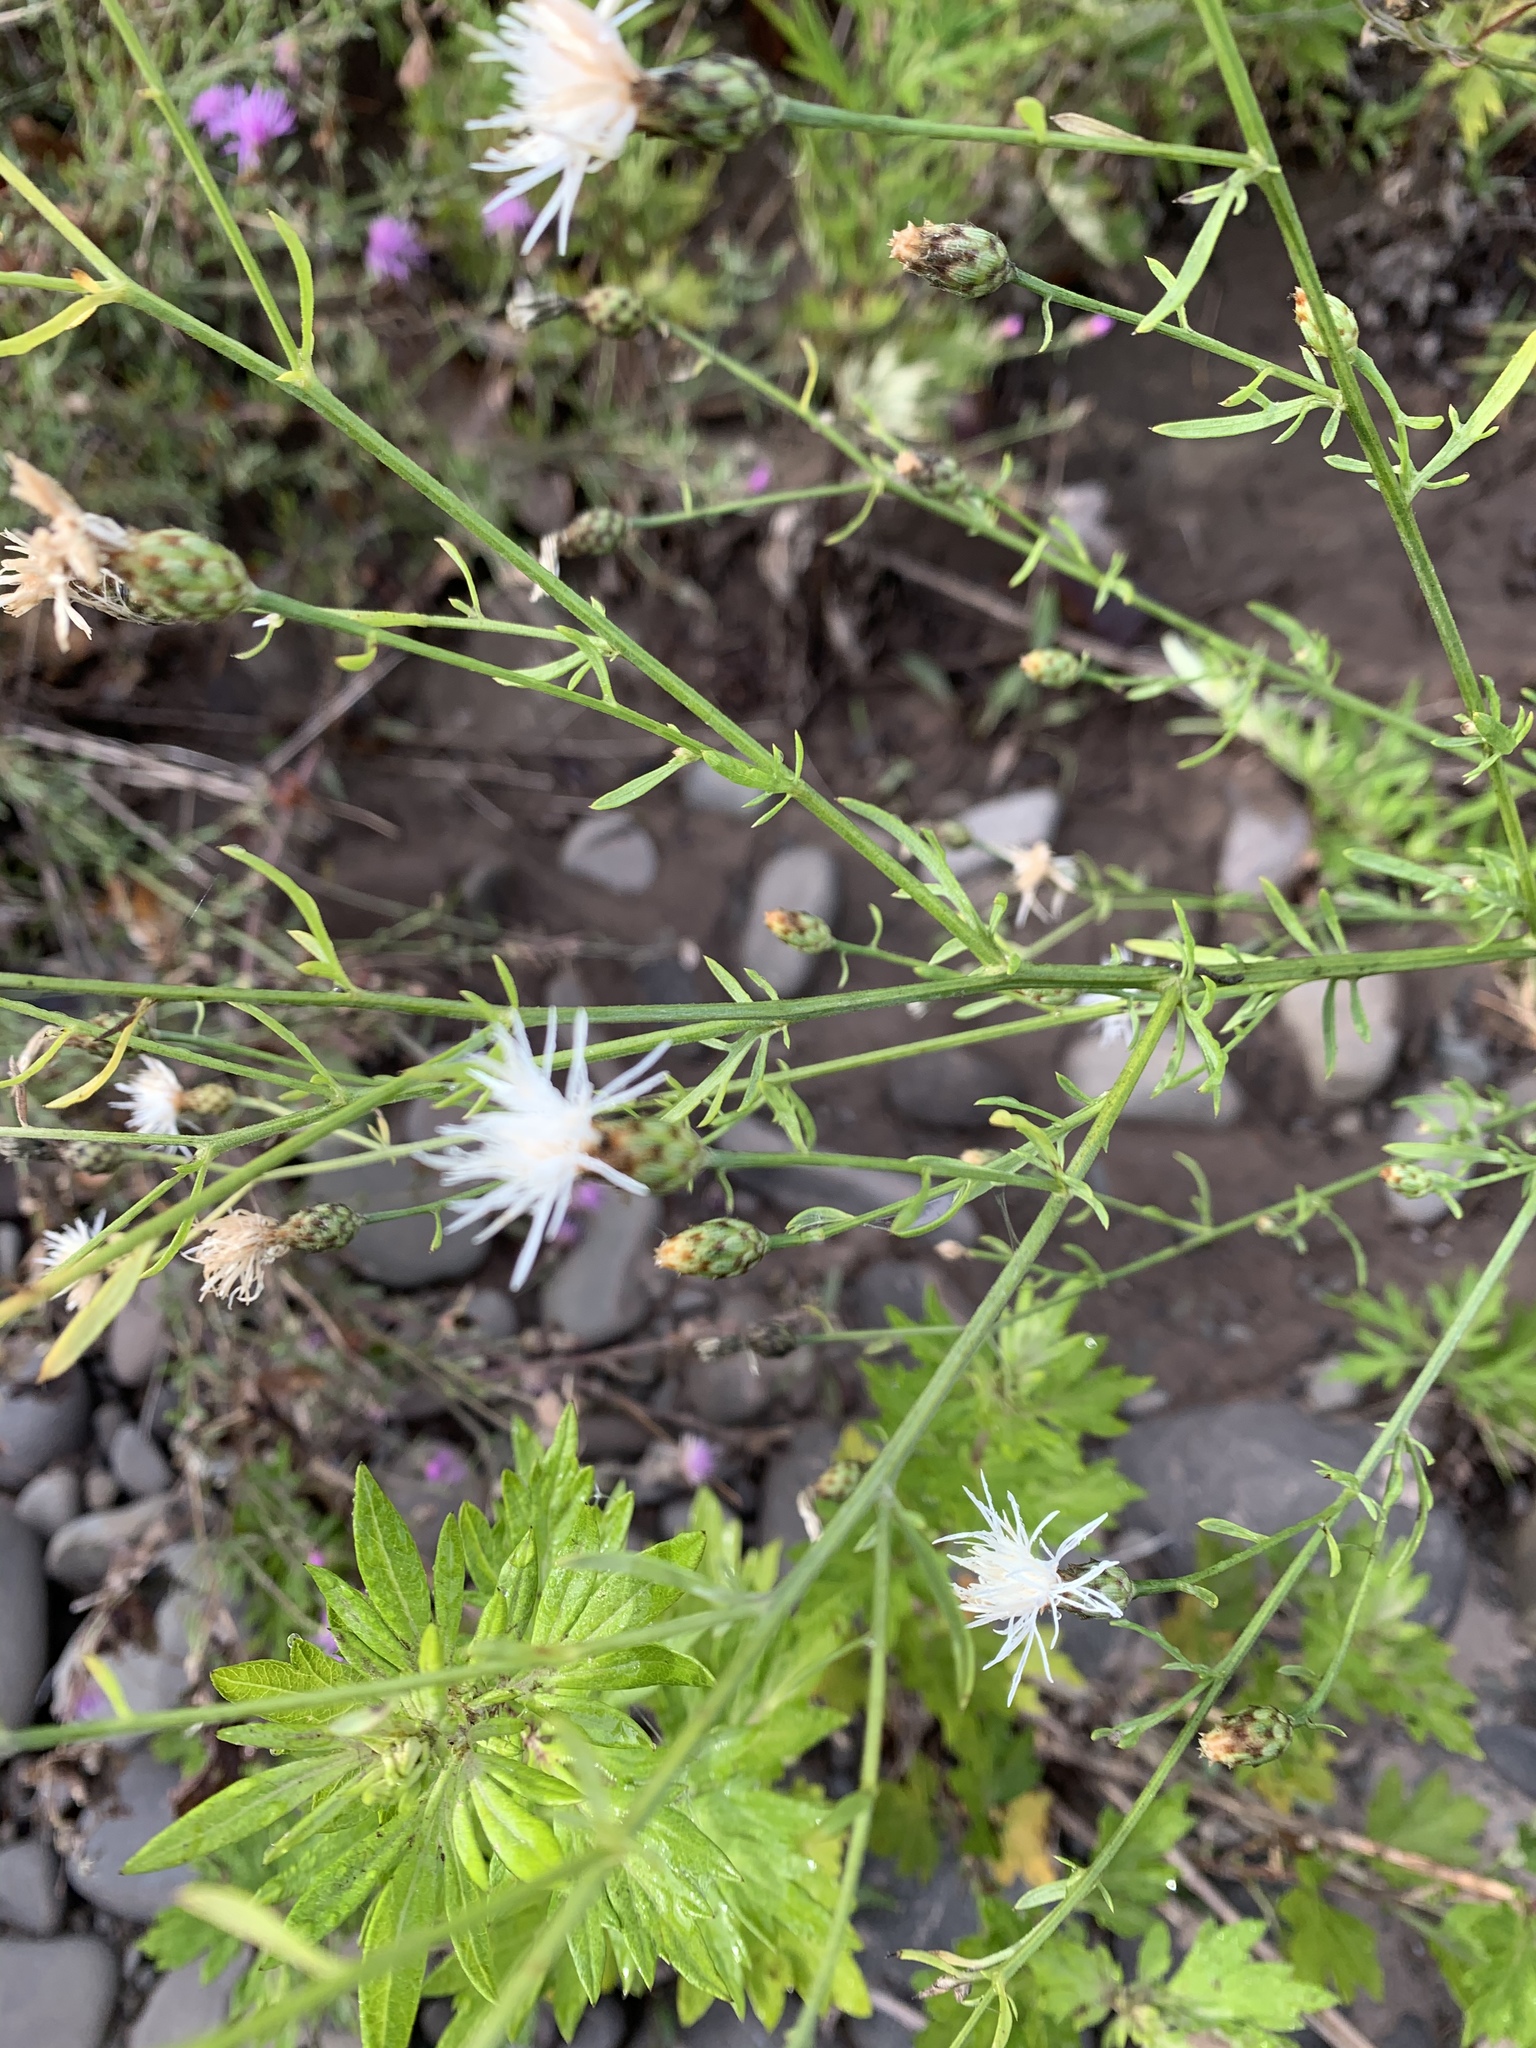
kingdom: Plantae
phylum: Tracheophyta
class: Magnoliopsida
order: Asterales
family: Asteraceae
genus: Centaurea
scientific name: Centaurea stoebe
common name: Spotted knapweed
